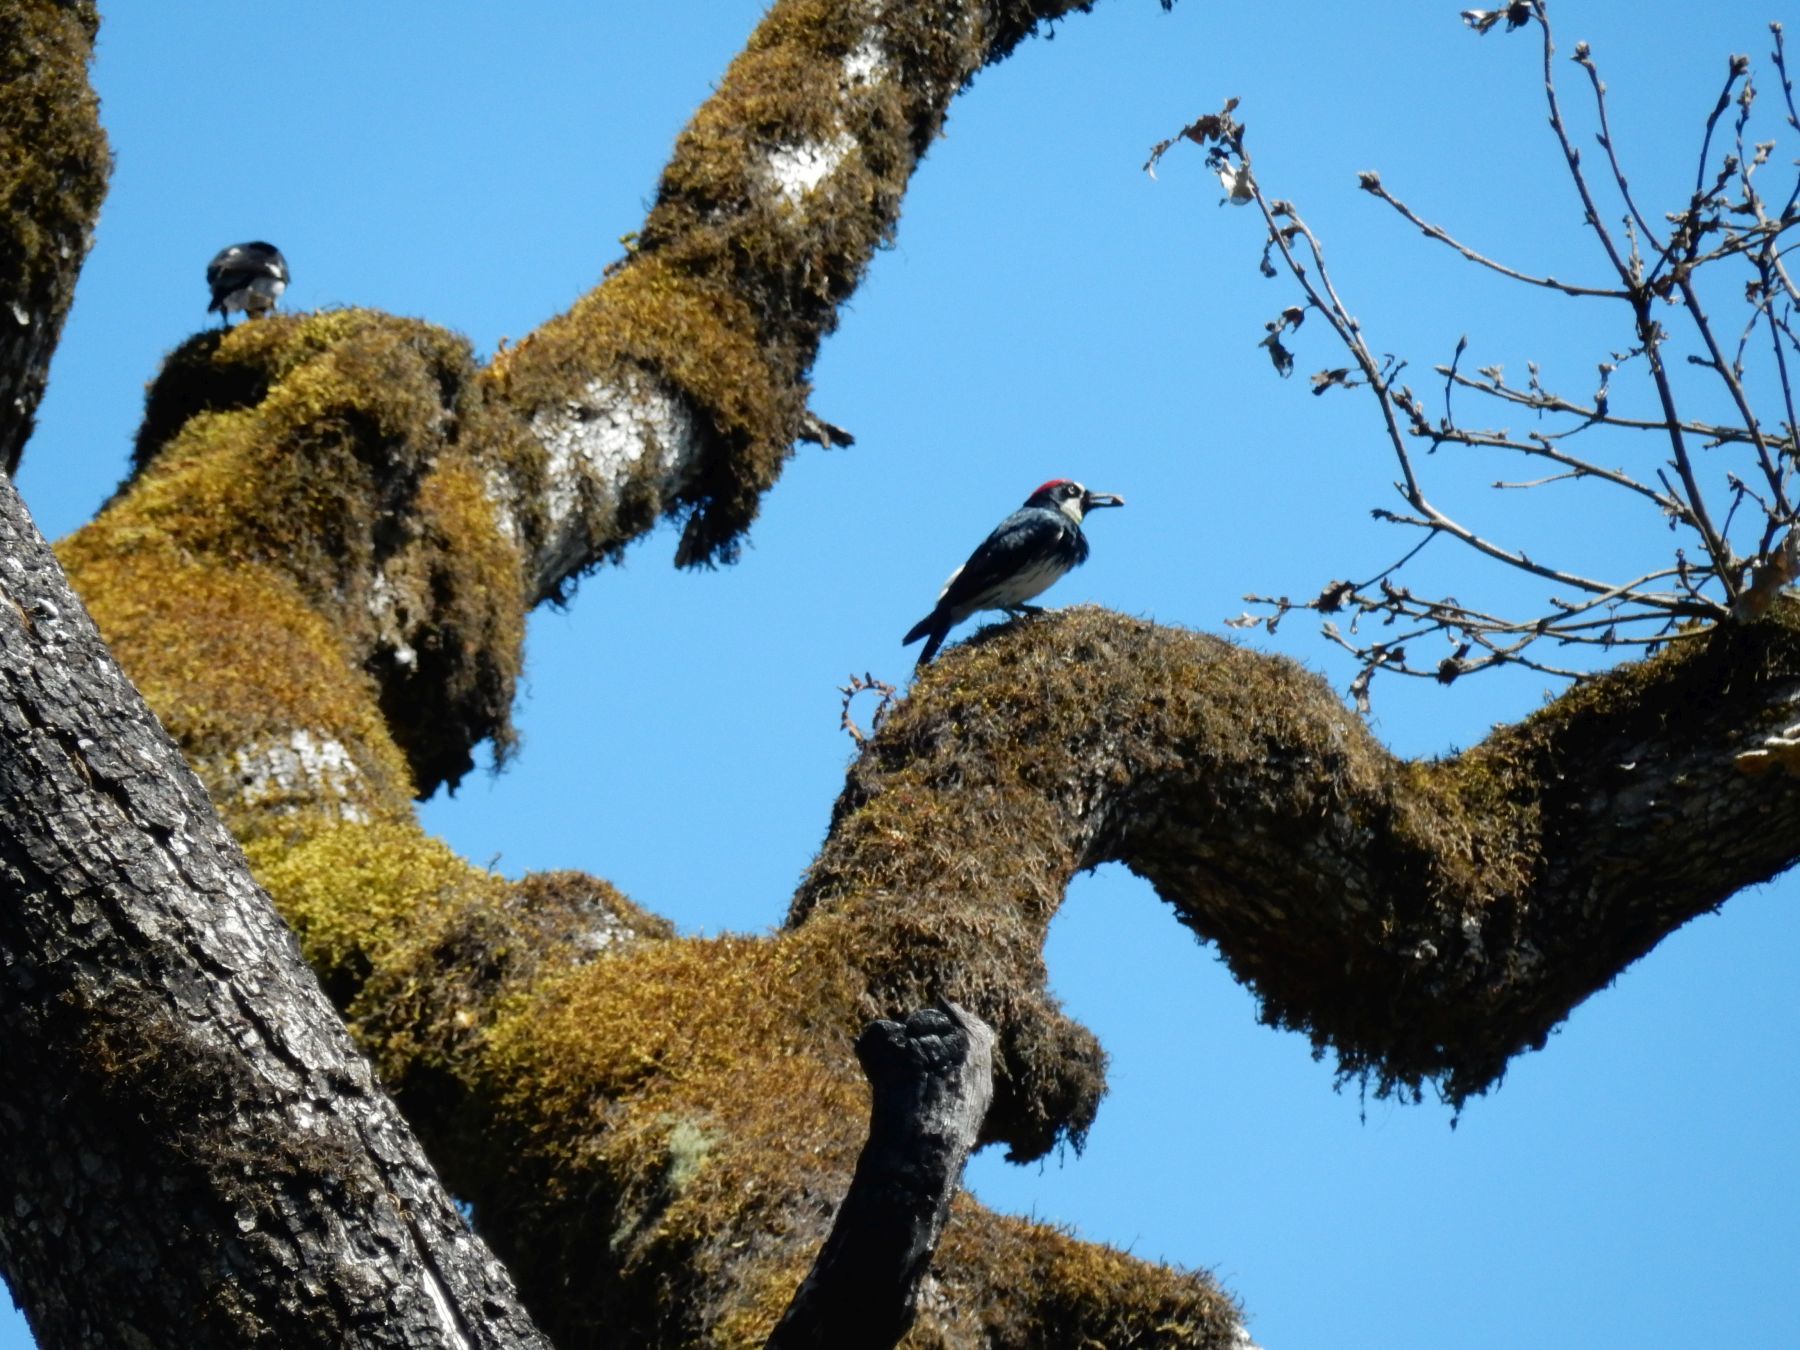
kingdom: Animalia
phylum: Chordata
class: Aves
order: Piciformes
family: Picidae
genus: Melanerpes
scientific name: Melanerpes formicivorus
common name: Acorn woodpecker
